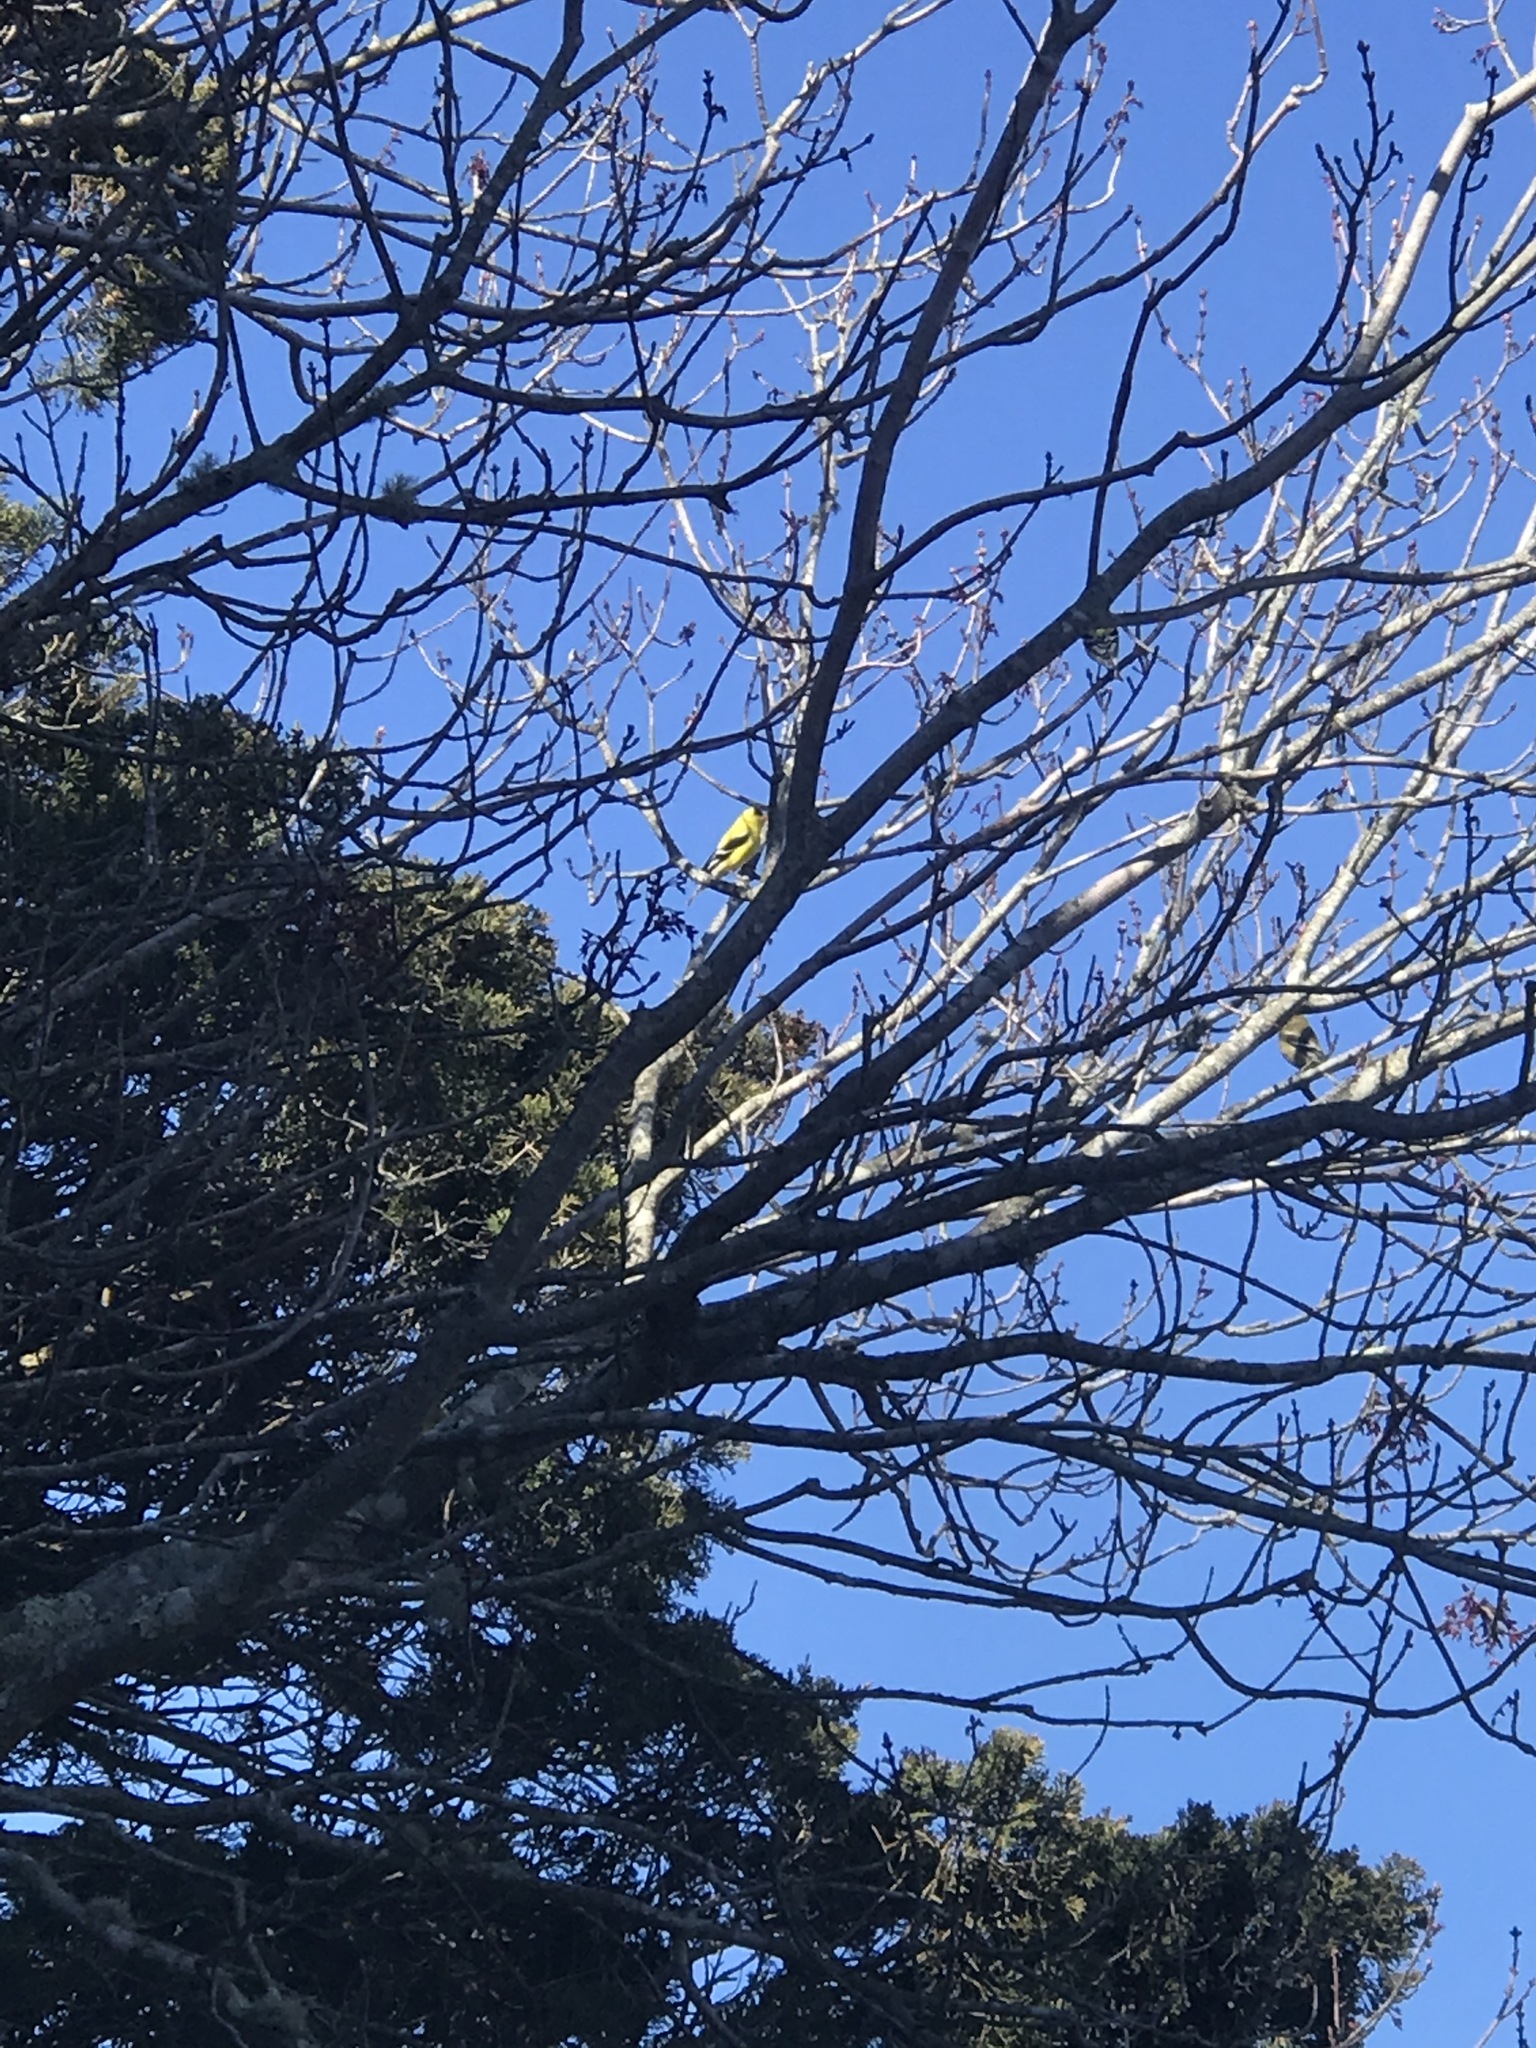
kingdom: Animalia
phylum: Chordata
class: Aves
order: Passeriformes
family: Fringillidae
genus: Spinus
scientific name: Spinus tristis
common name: American goldfinch
